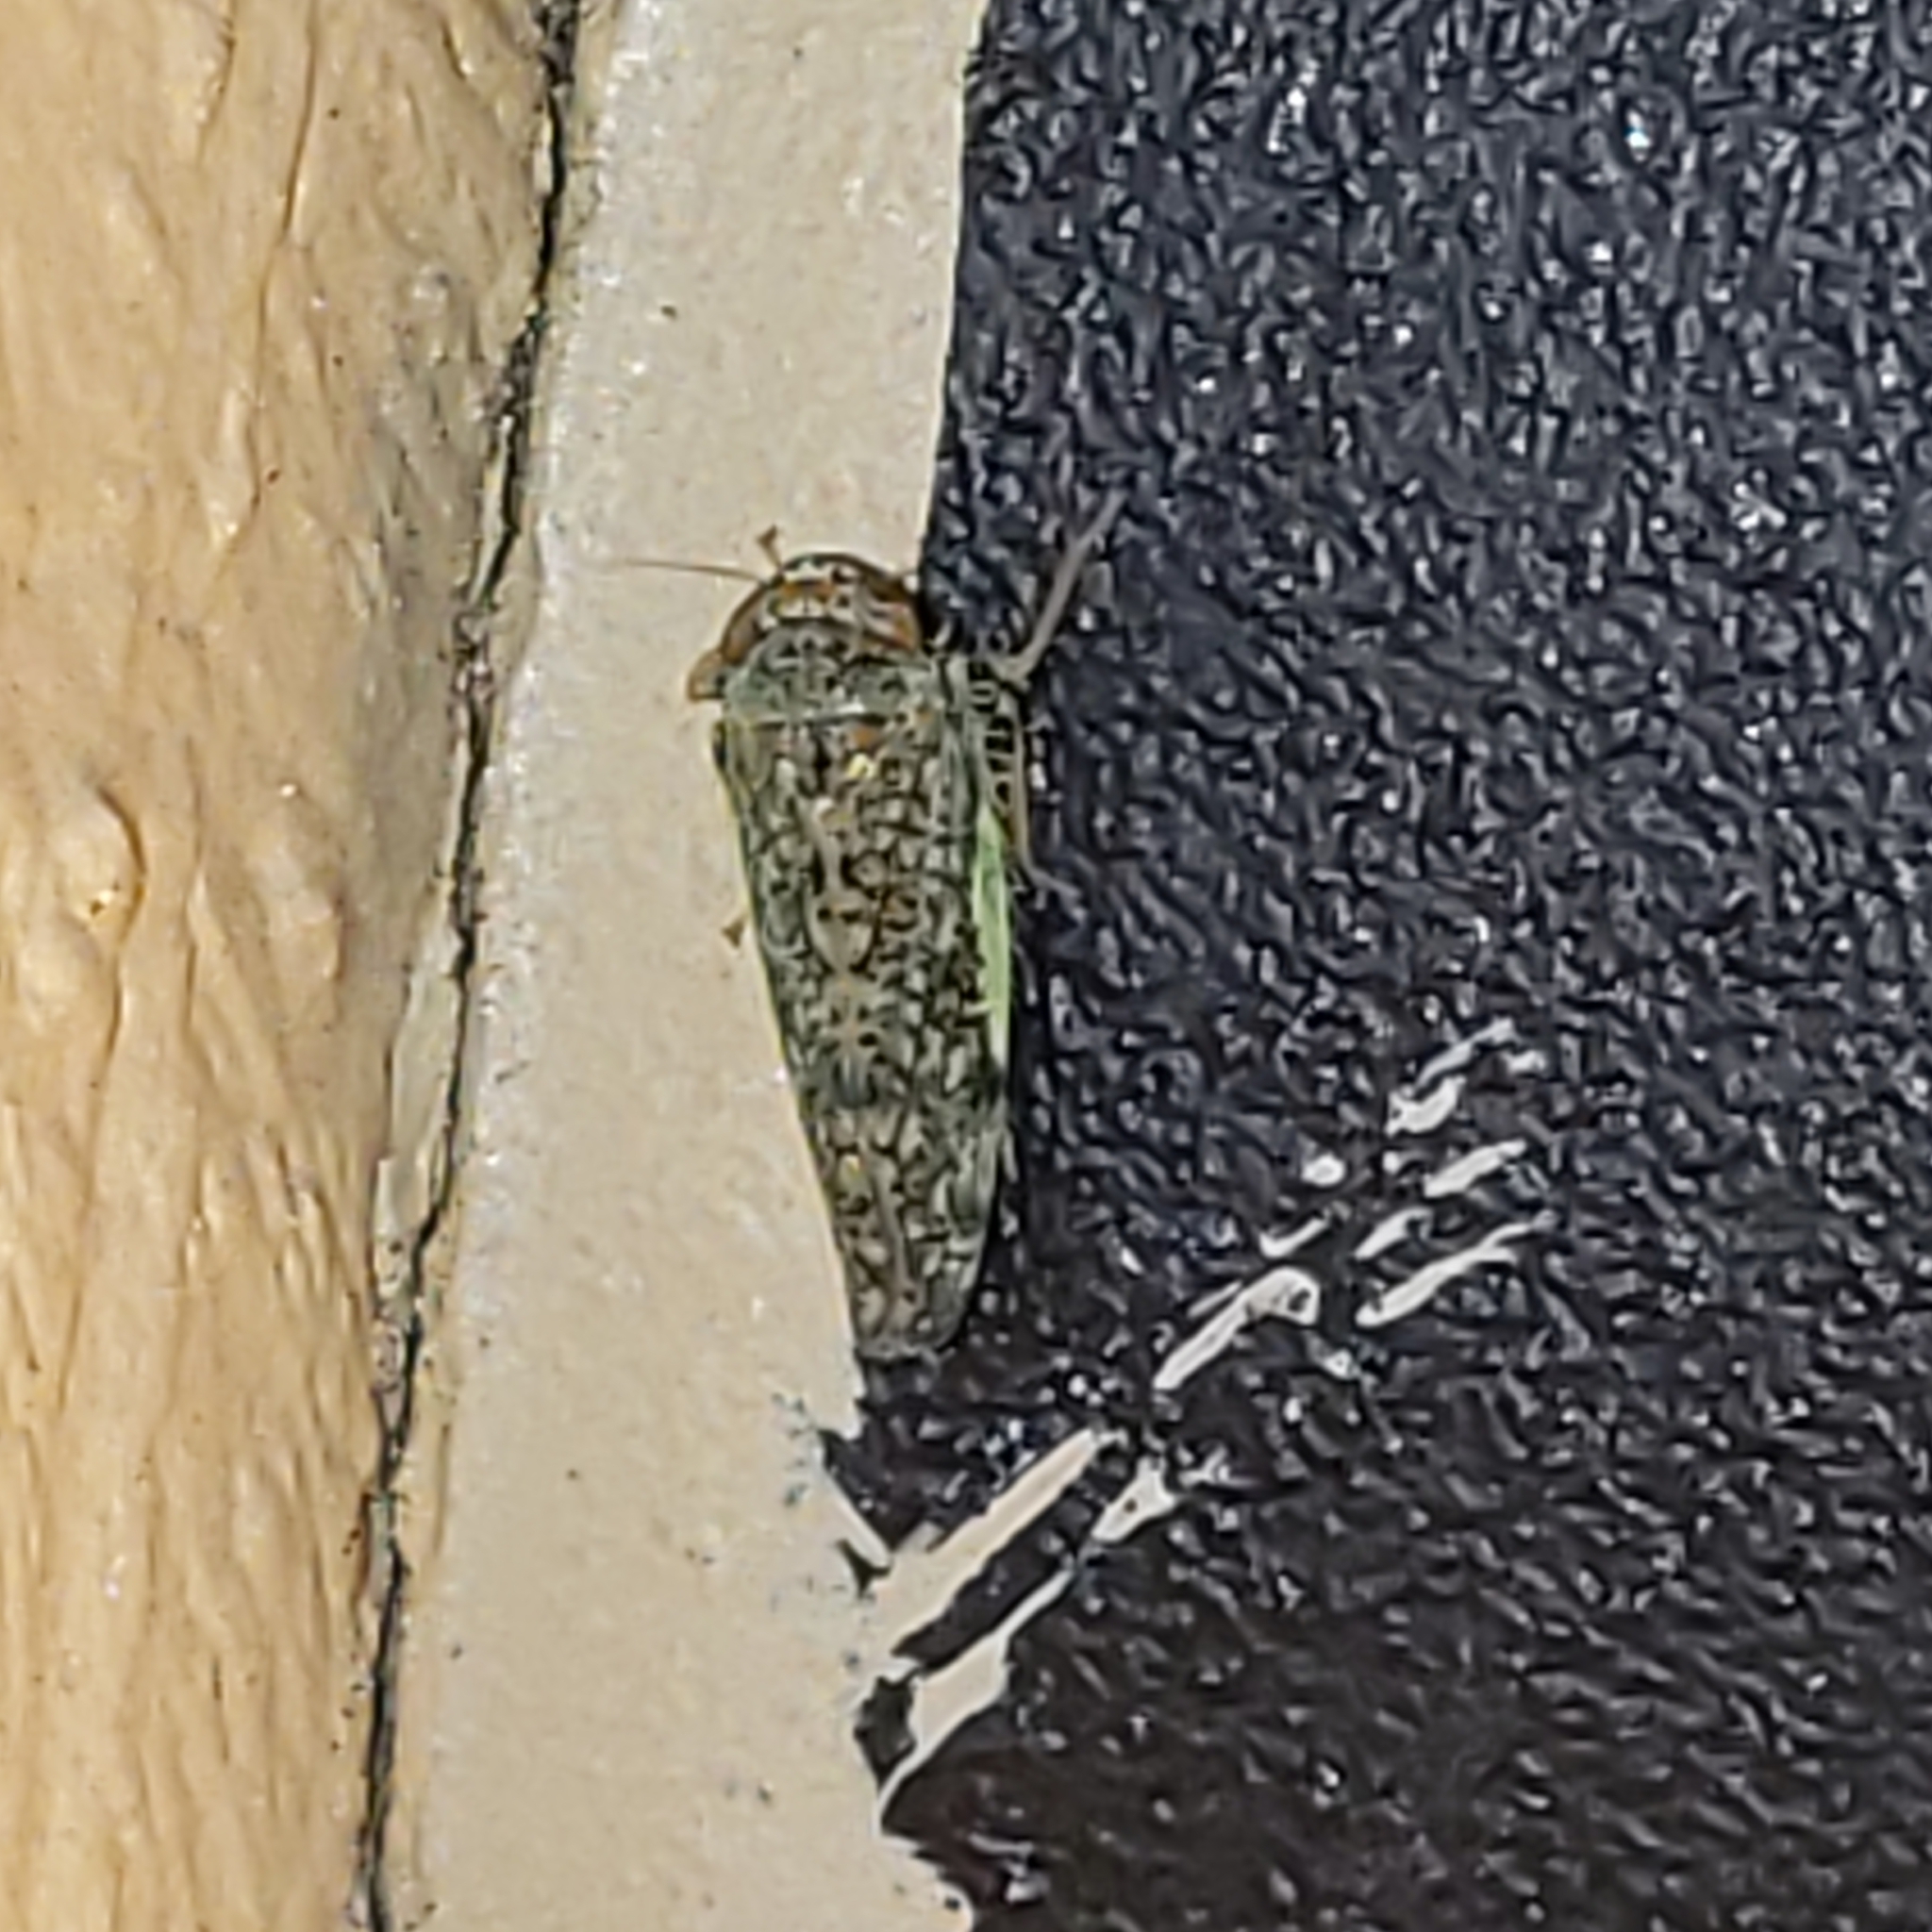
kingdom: Animalia
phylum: Arthropoda
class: Insecta
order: Hemiptera
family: Cicadellidae
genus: Orientus
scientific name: Orientus ishidae
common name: Japanese leafhopper
